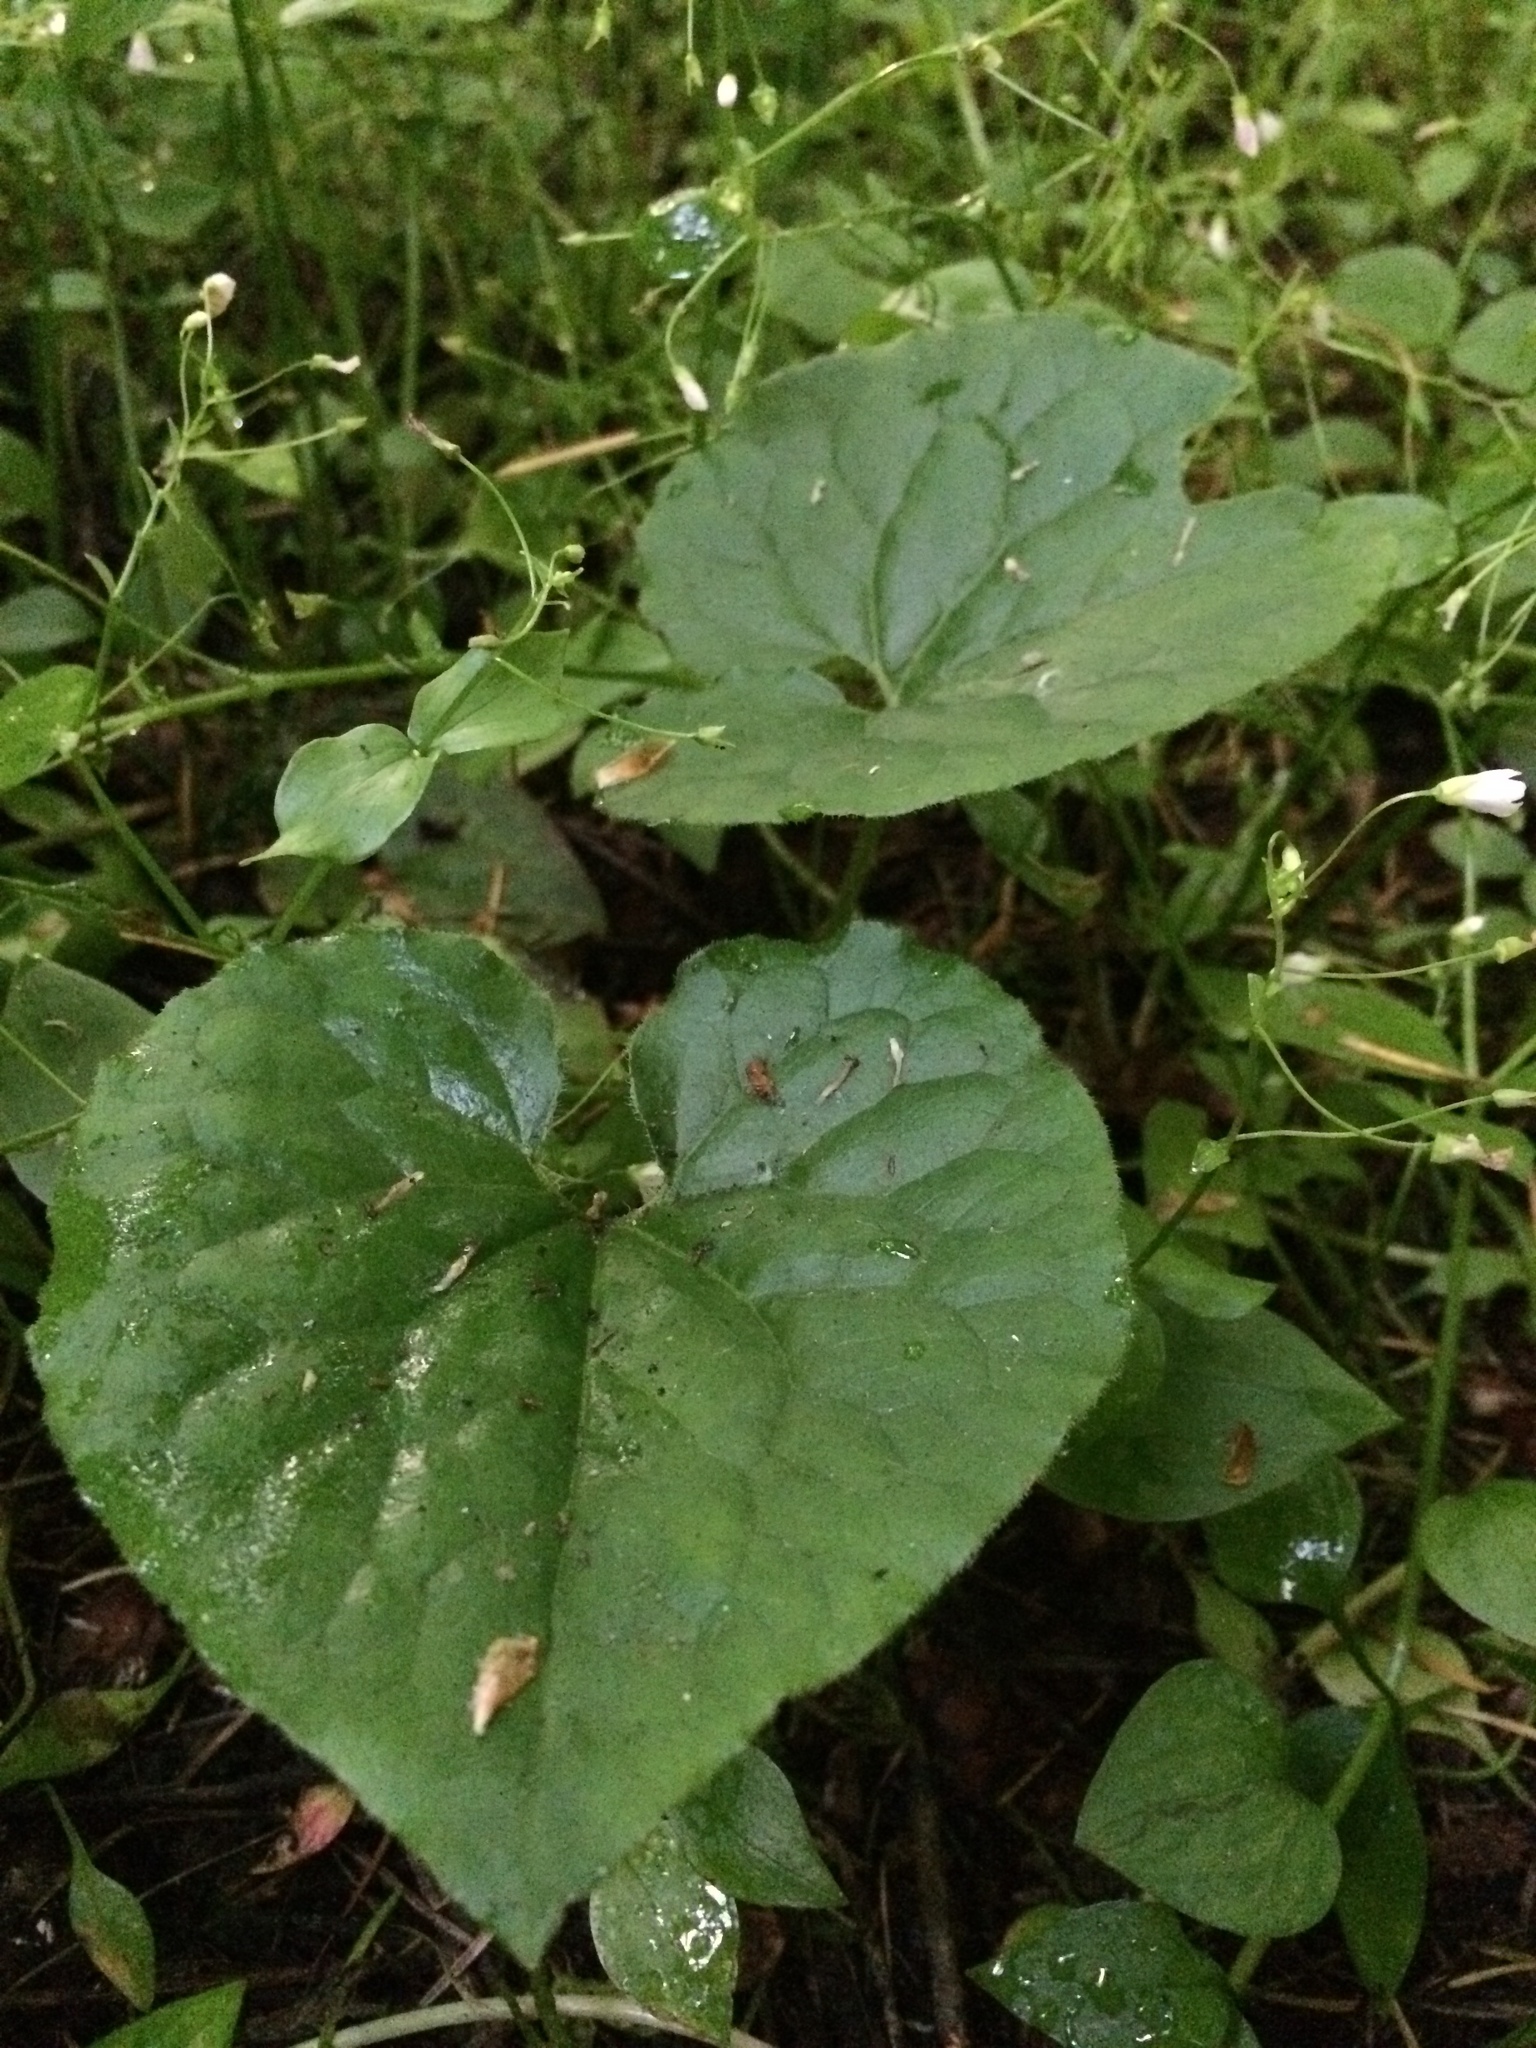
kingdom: Plantae
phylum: Tracheophyta
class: Magnoliopsida
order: Piperales
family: Aristolochiaceae
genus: Asarum
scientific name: Asarum caudatum
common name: Wild ginger
